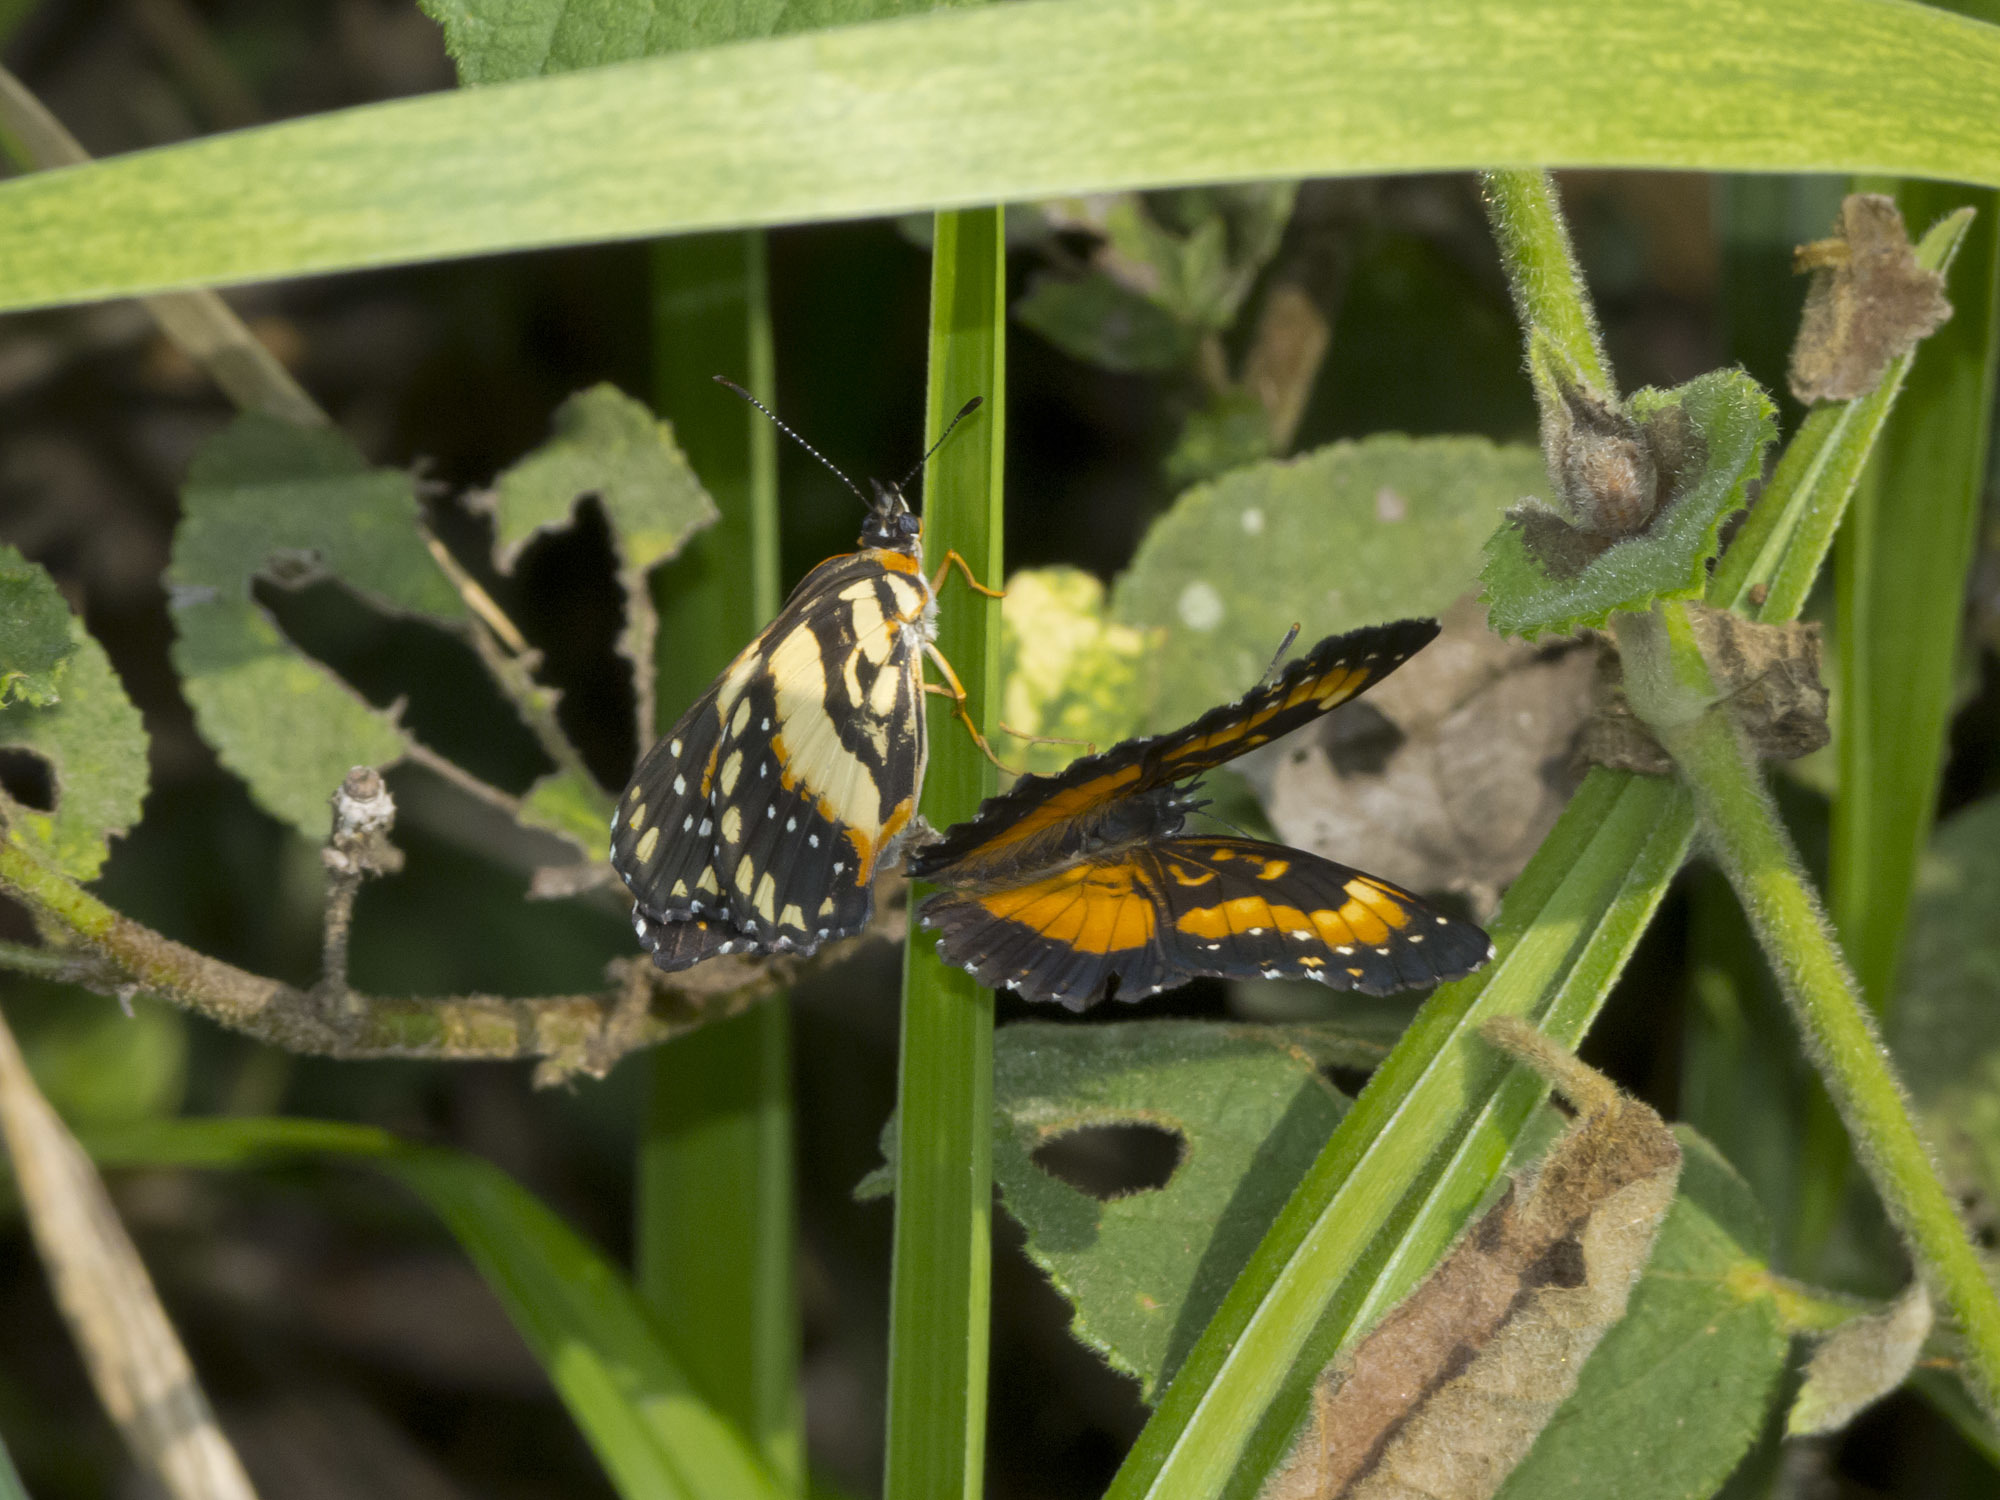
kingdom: Animalia
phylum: Arthropoda
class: Insecta
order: Lepidoptera
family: Nymphalidae
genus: Chlosyne
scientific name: Chlosyne lacinia
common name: Bordered patch
